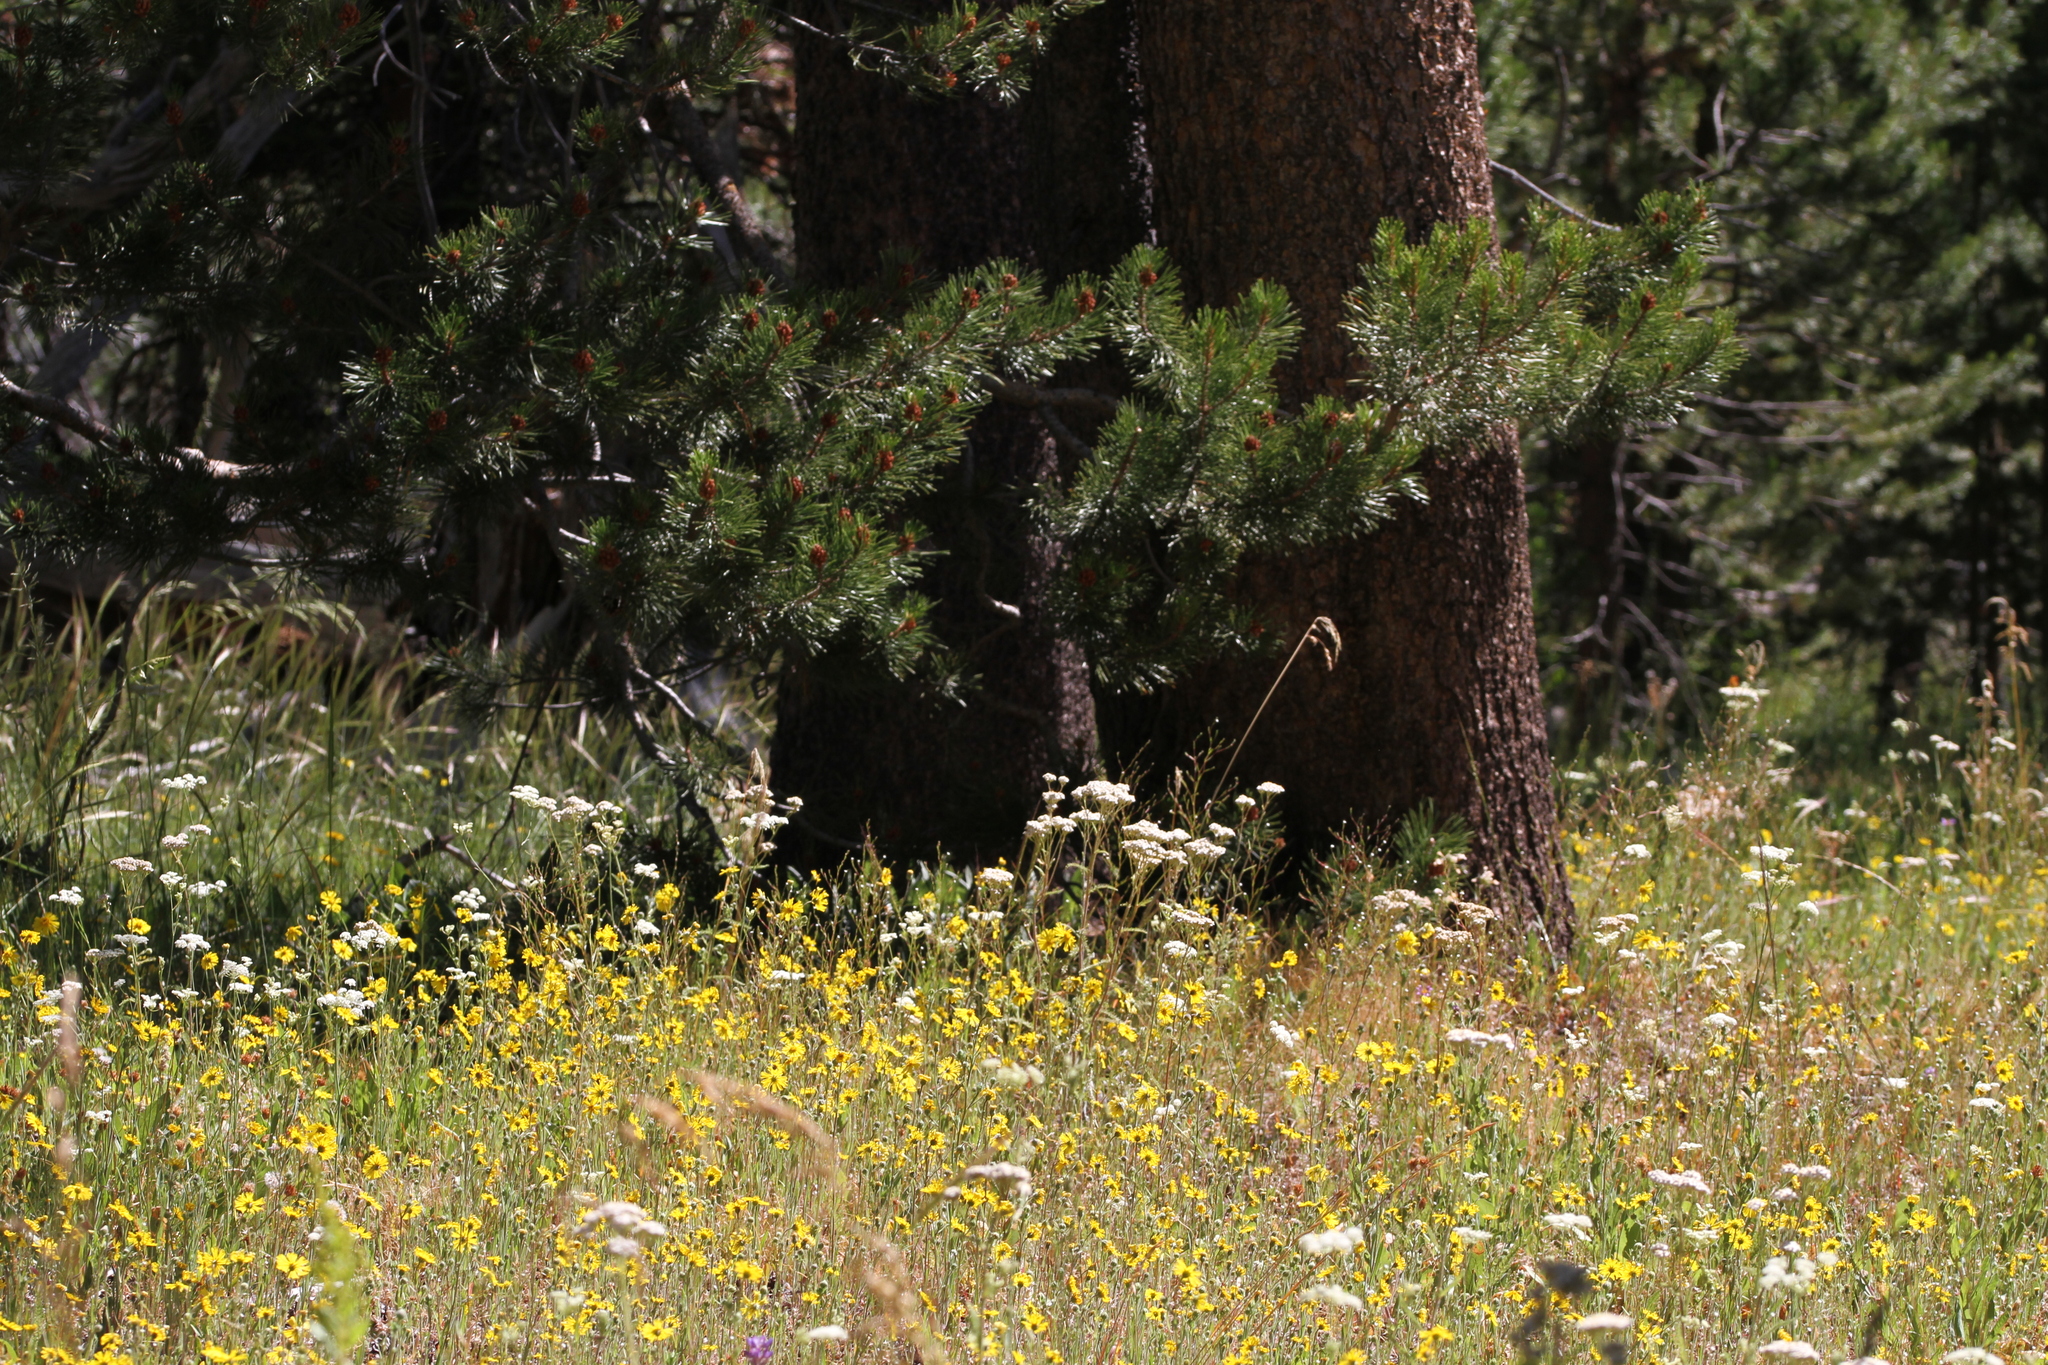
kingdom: Plantae
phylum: Tracheophyta
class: Magnoliopsida
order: Asterales
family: Asteraceae
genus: Madia
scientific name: Madia elegans
